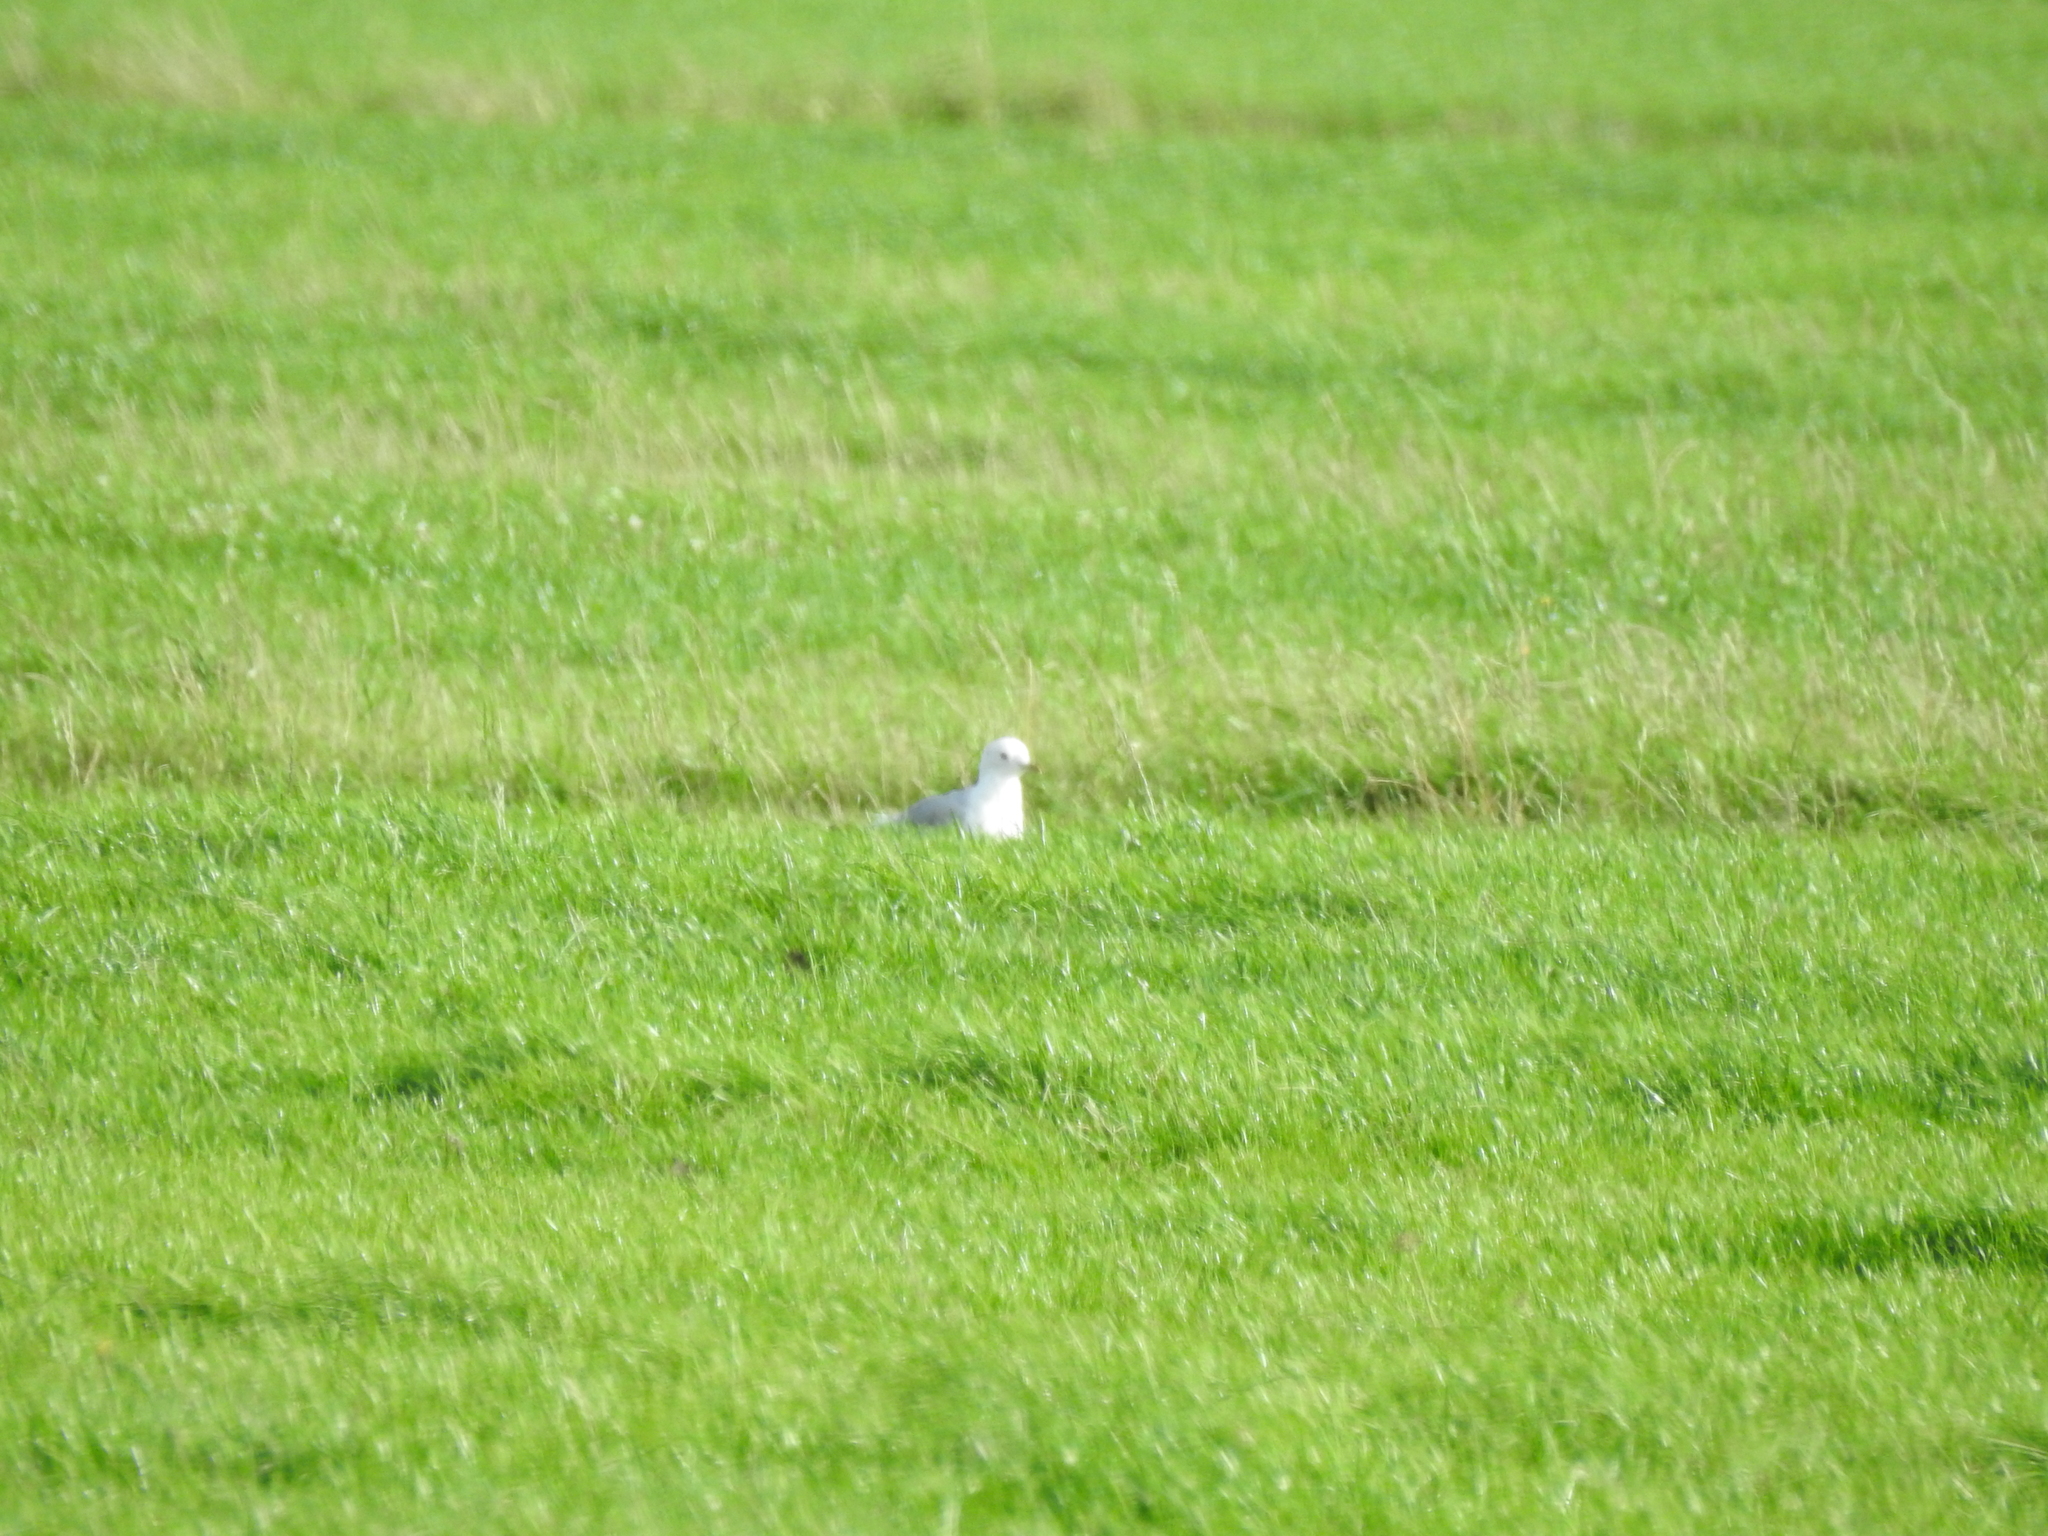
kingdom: Animalia
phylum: Chordata
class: Aves
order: Charadriiformes
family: Laridae
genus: Larus
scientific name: Larus canus
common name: Mew gull
